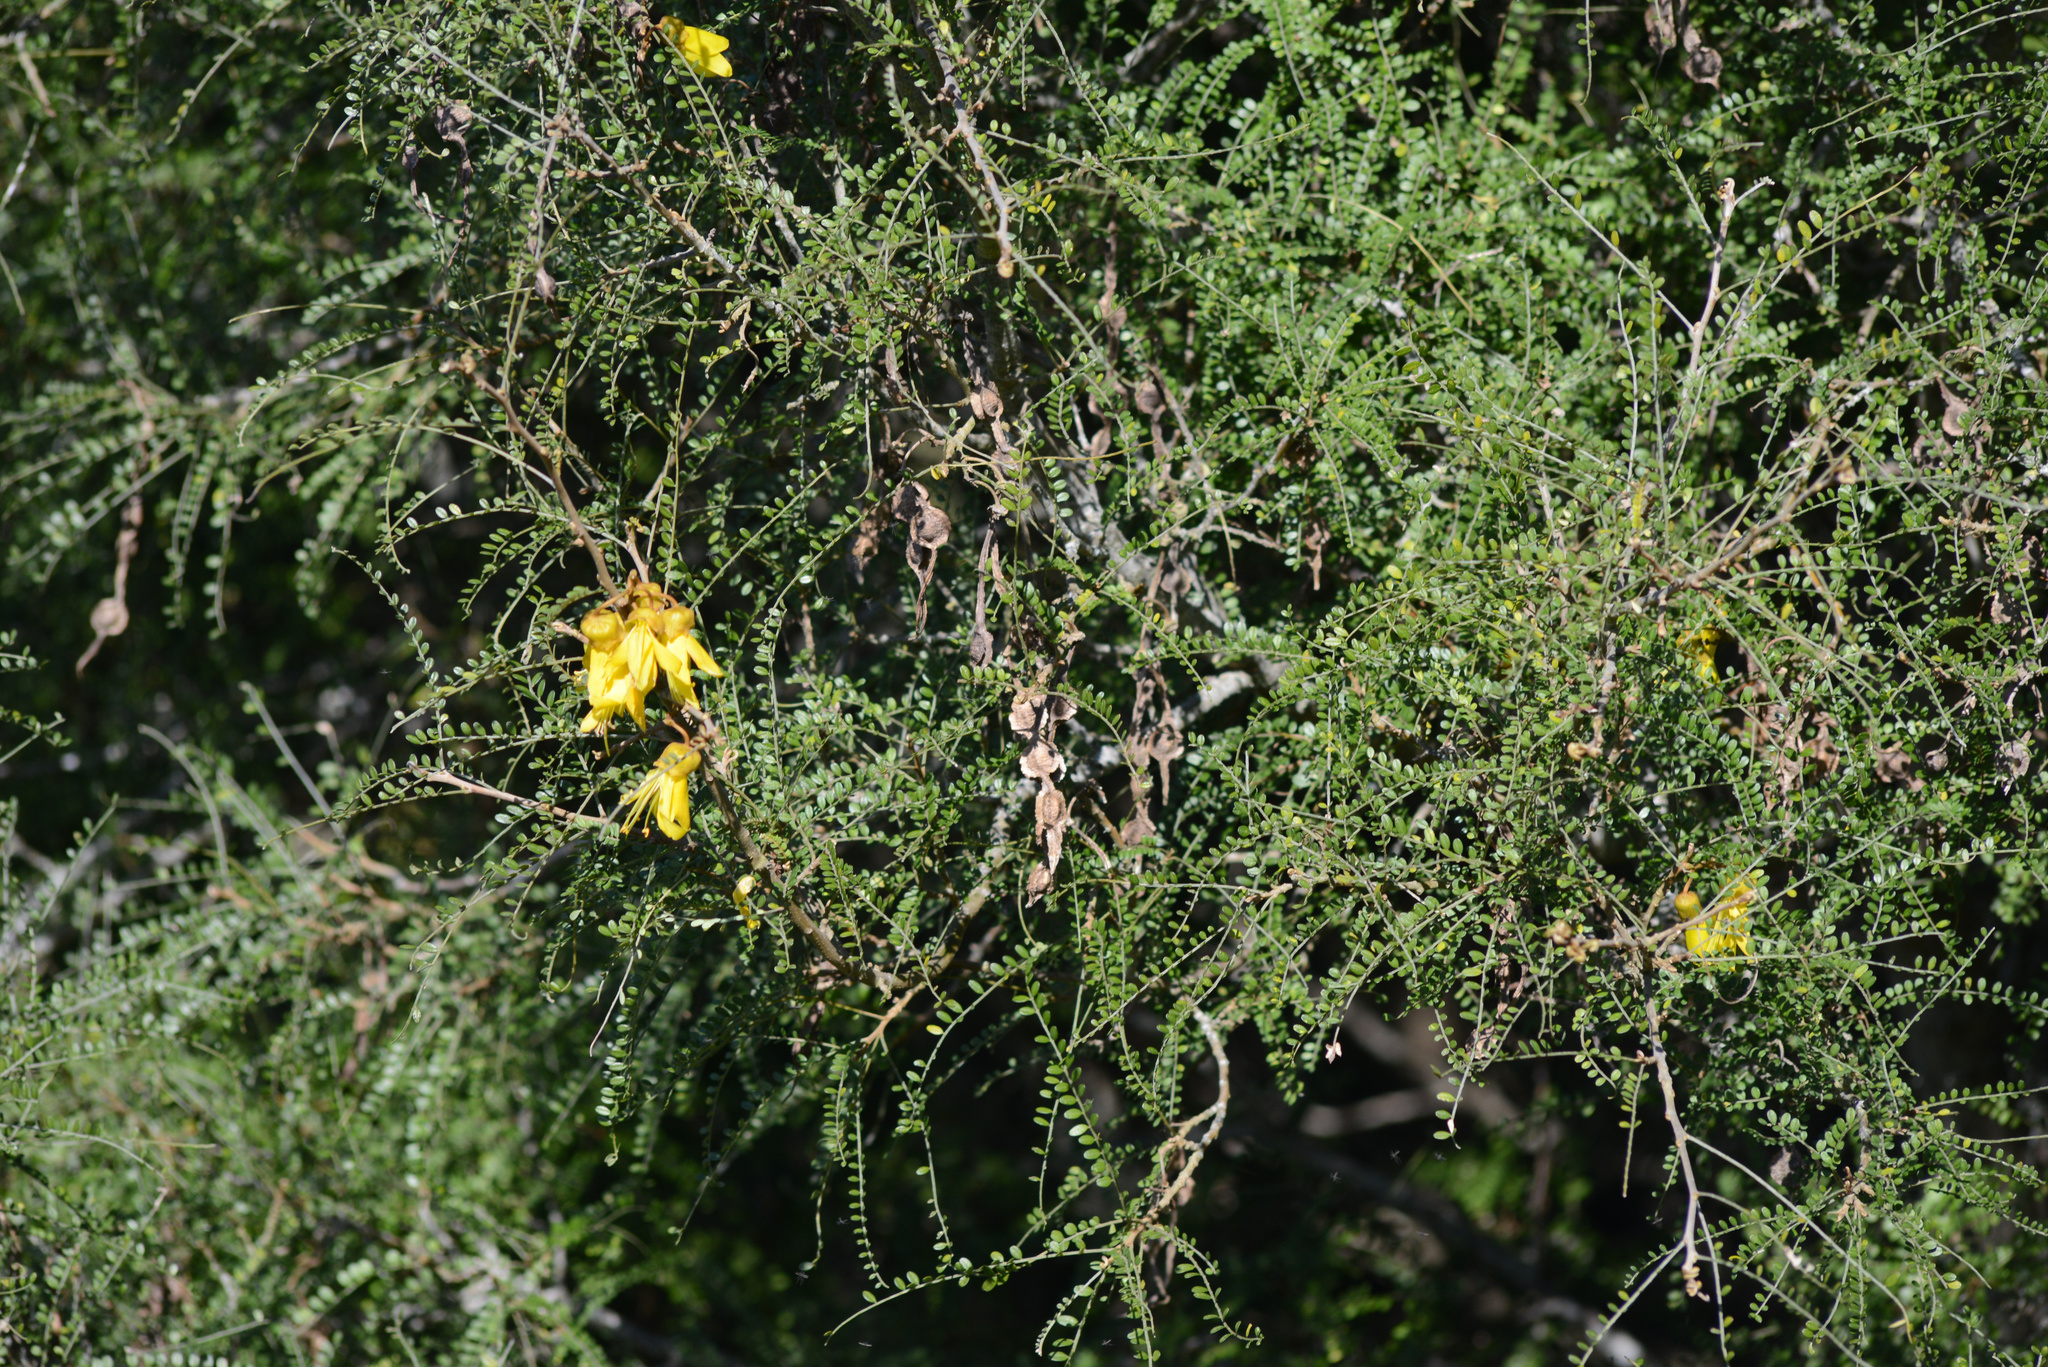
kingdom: Plantae
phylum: Tracheophyta
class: Magnoliopsida
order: Fabales
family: Fabaceae
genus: Sophora
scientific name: Sophora microphylla
